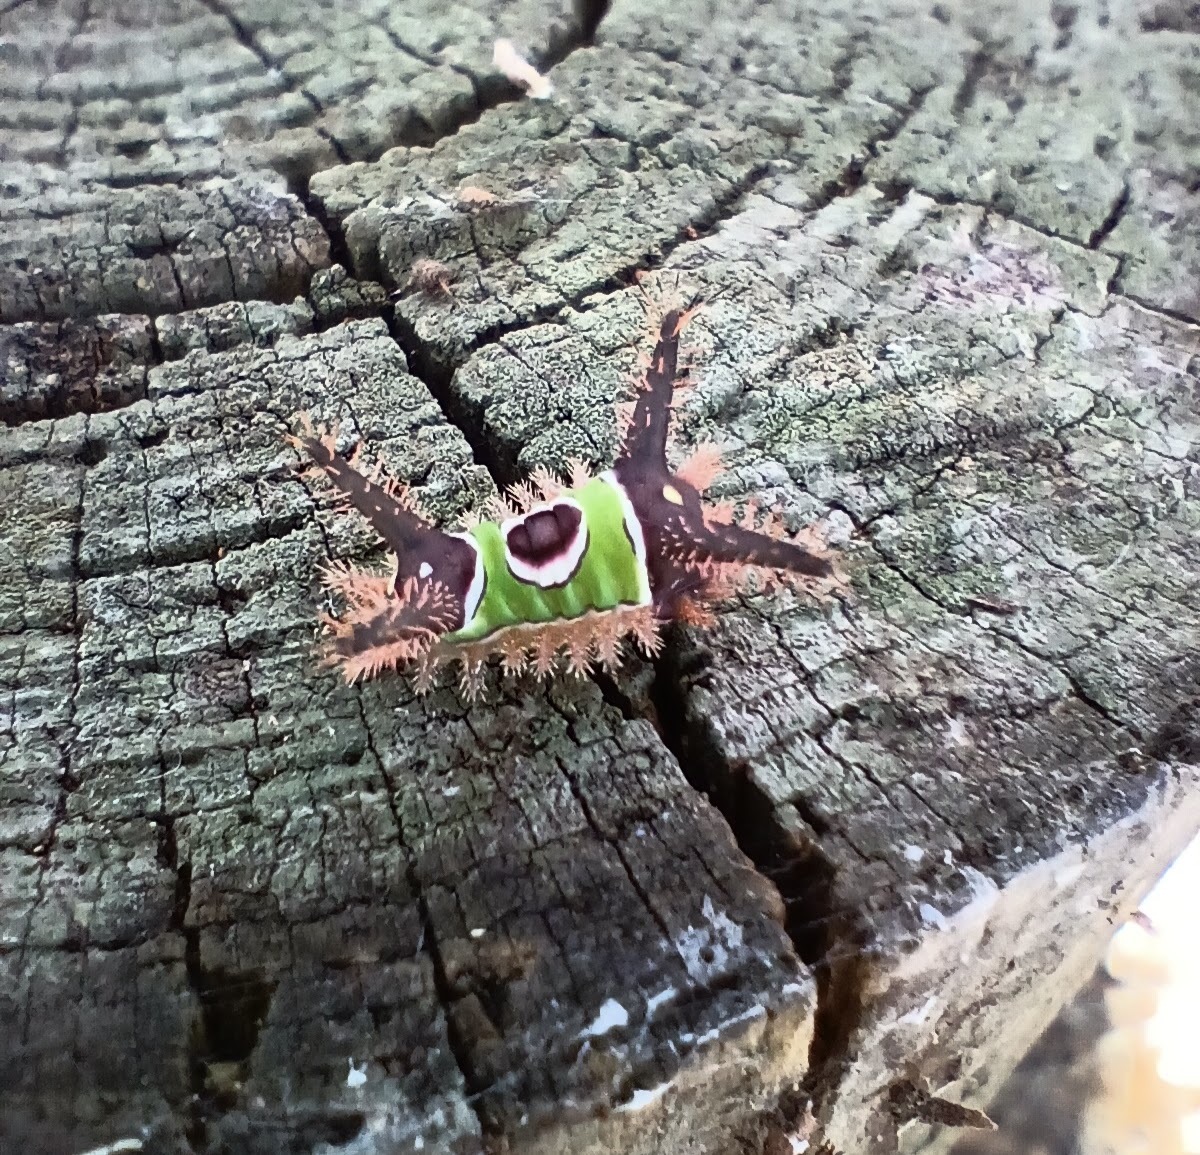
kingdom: Animalia
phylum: Arthropoda
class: Insecta
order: Lepidoptera
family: Limacodidae
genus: Acharia
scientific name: Acharia stimulea
